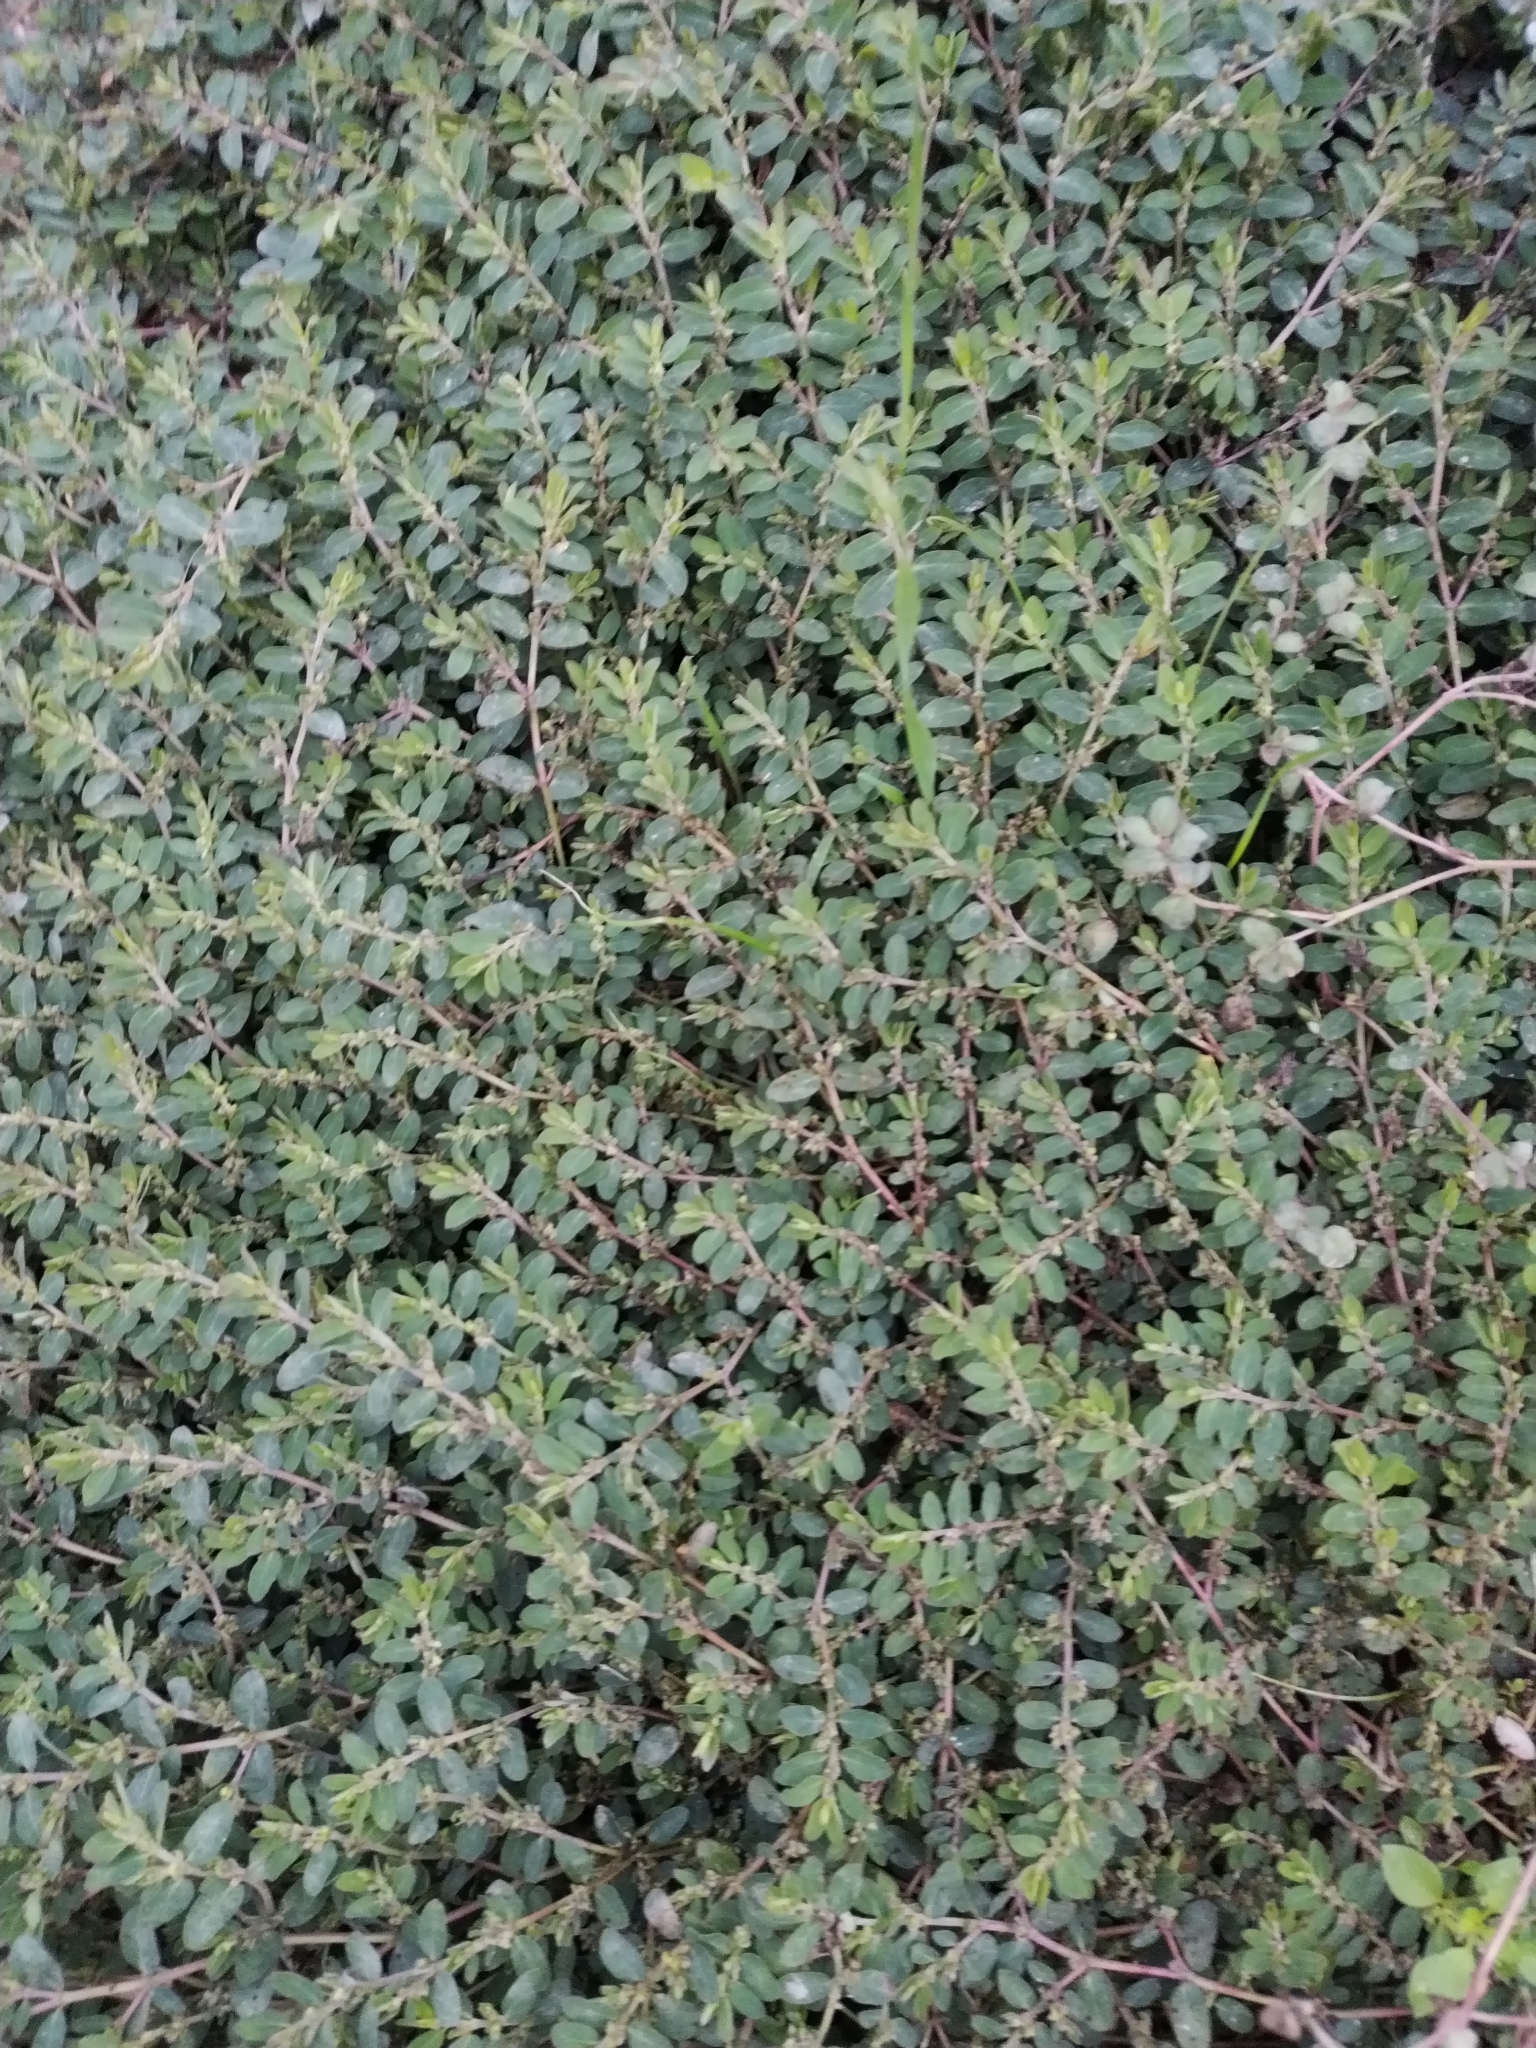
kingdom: Plantae
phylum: Tracheophyta
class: Magnoliopsida
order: Malpighiales
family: Euphorbiaceae
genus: Euphorbia
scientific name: Euphorbia prostrata
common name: Prostrate sandmat
